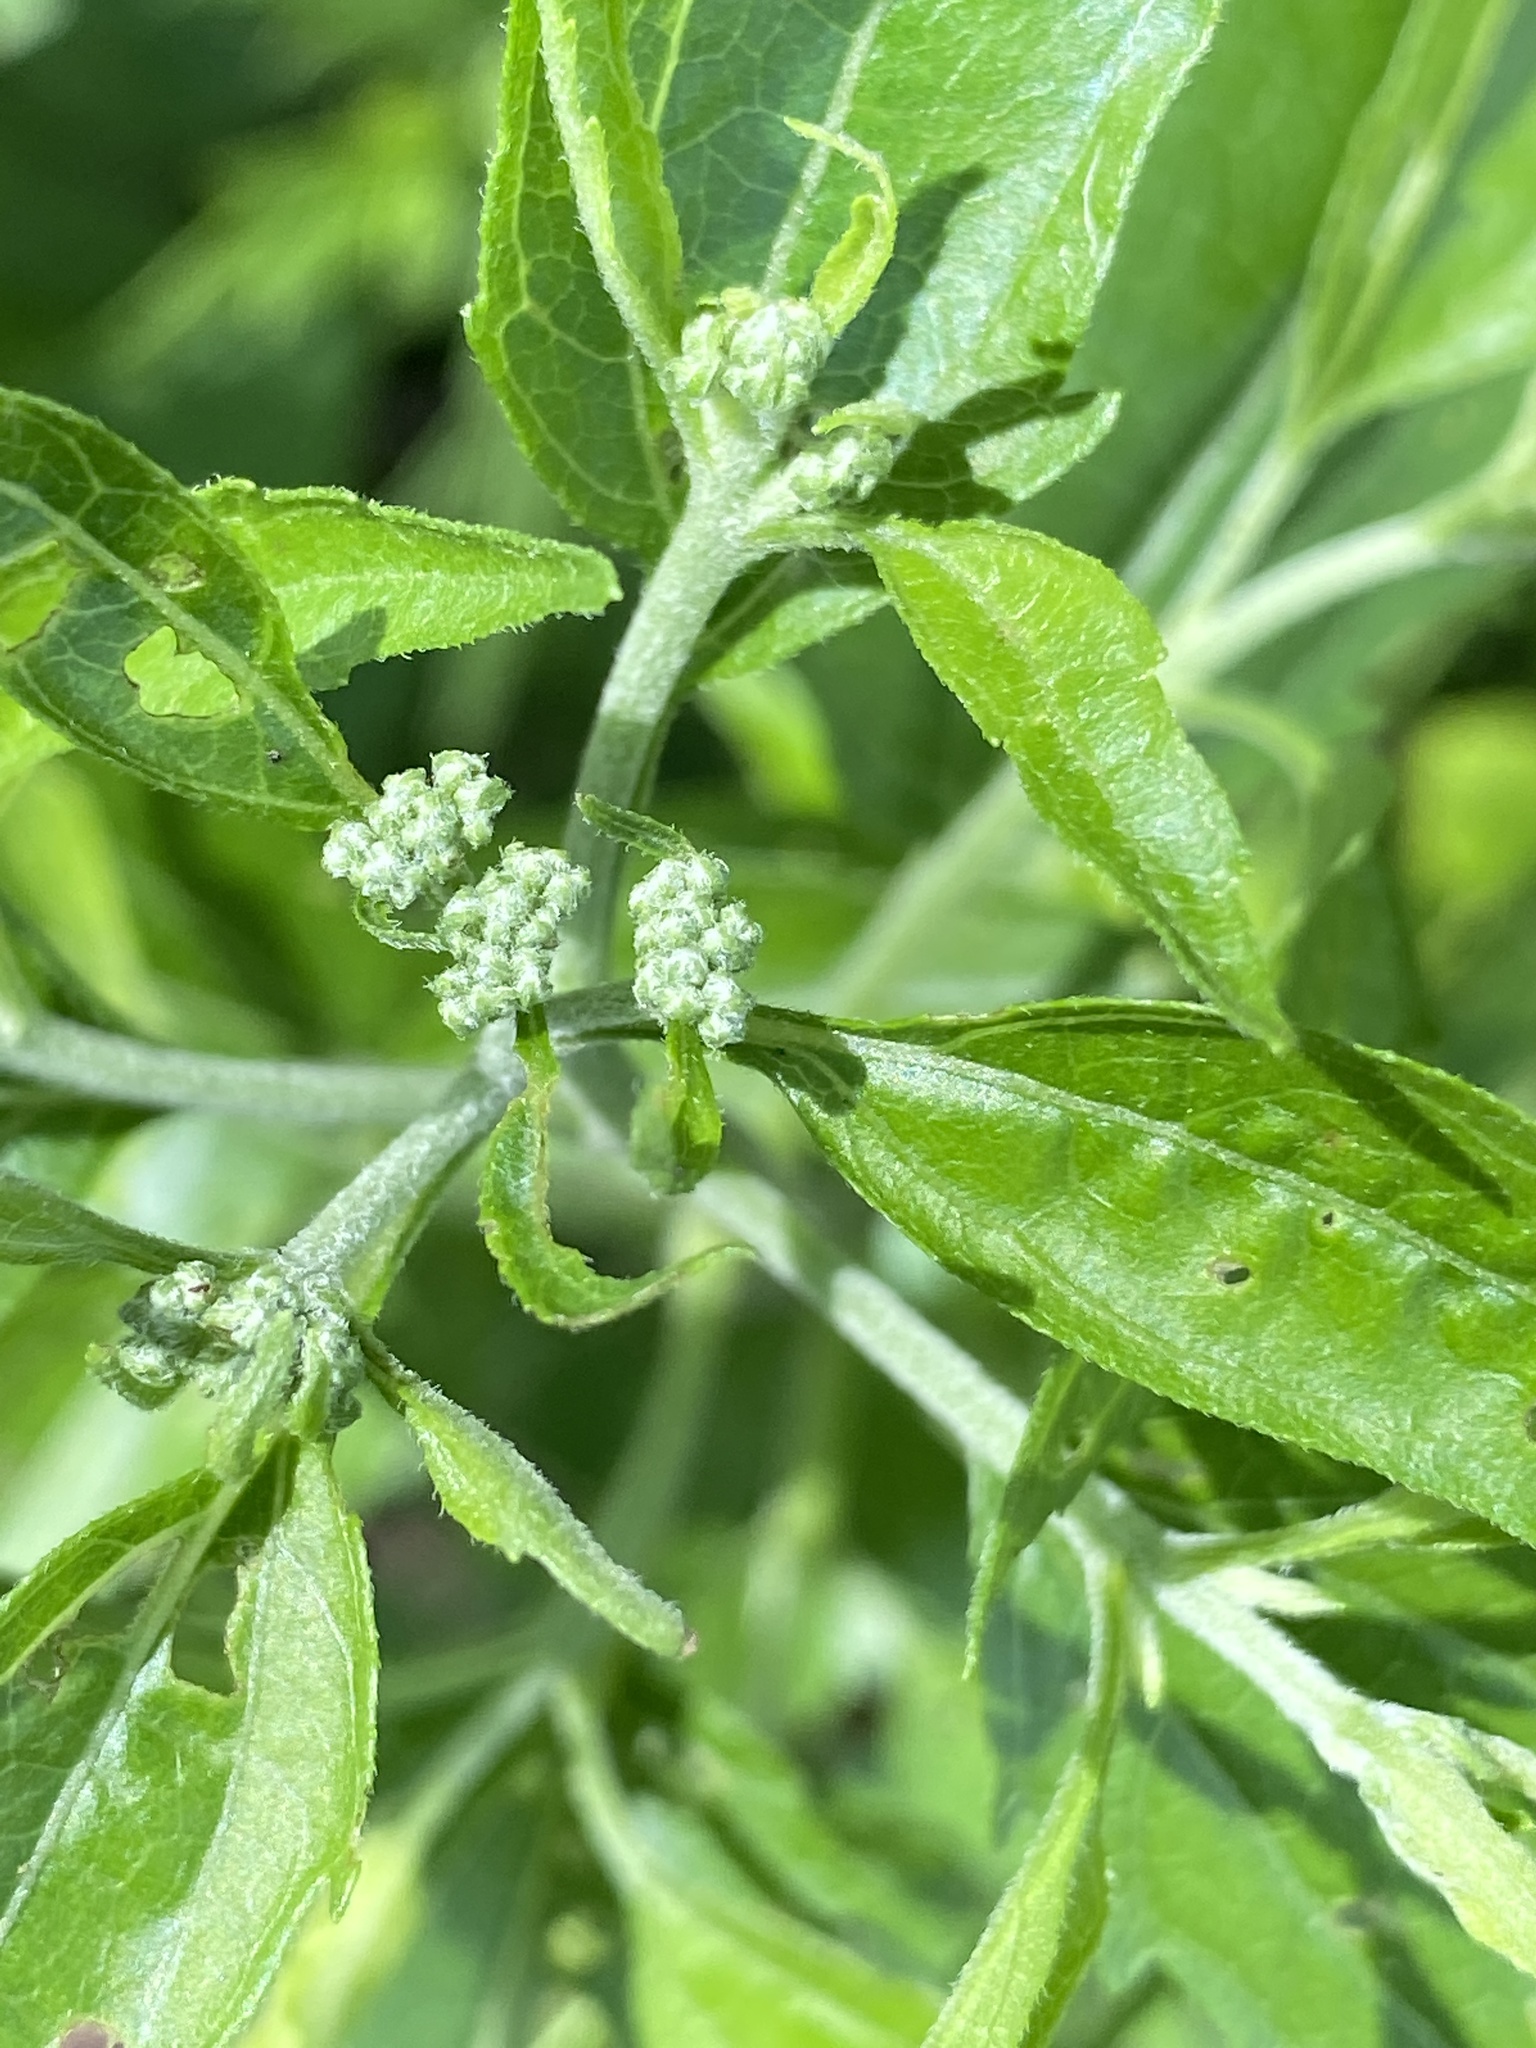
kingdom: Plantae
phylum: Tracheophyta
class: Magnoliopsida
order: Asterales
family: Asteraceae
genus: Eupatorium
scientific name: Eupatorium serotinum
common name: Late boneset
